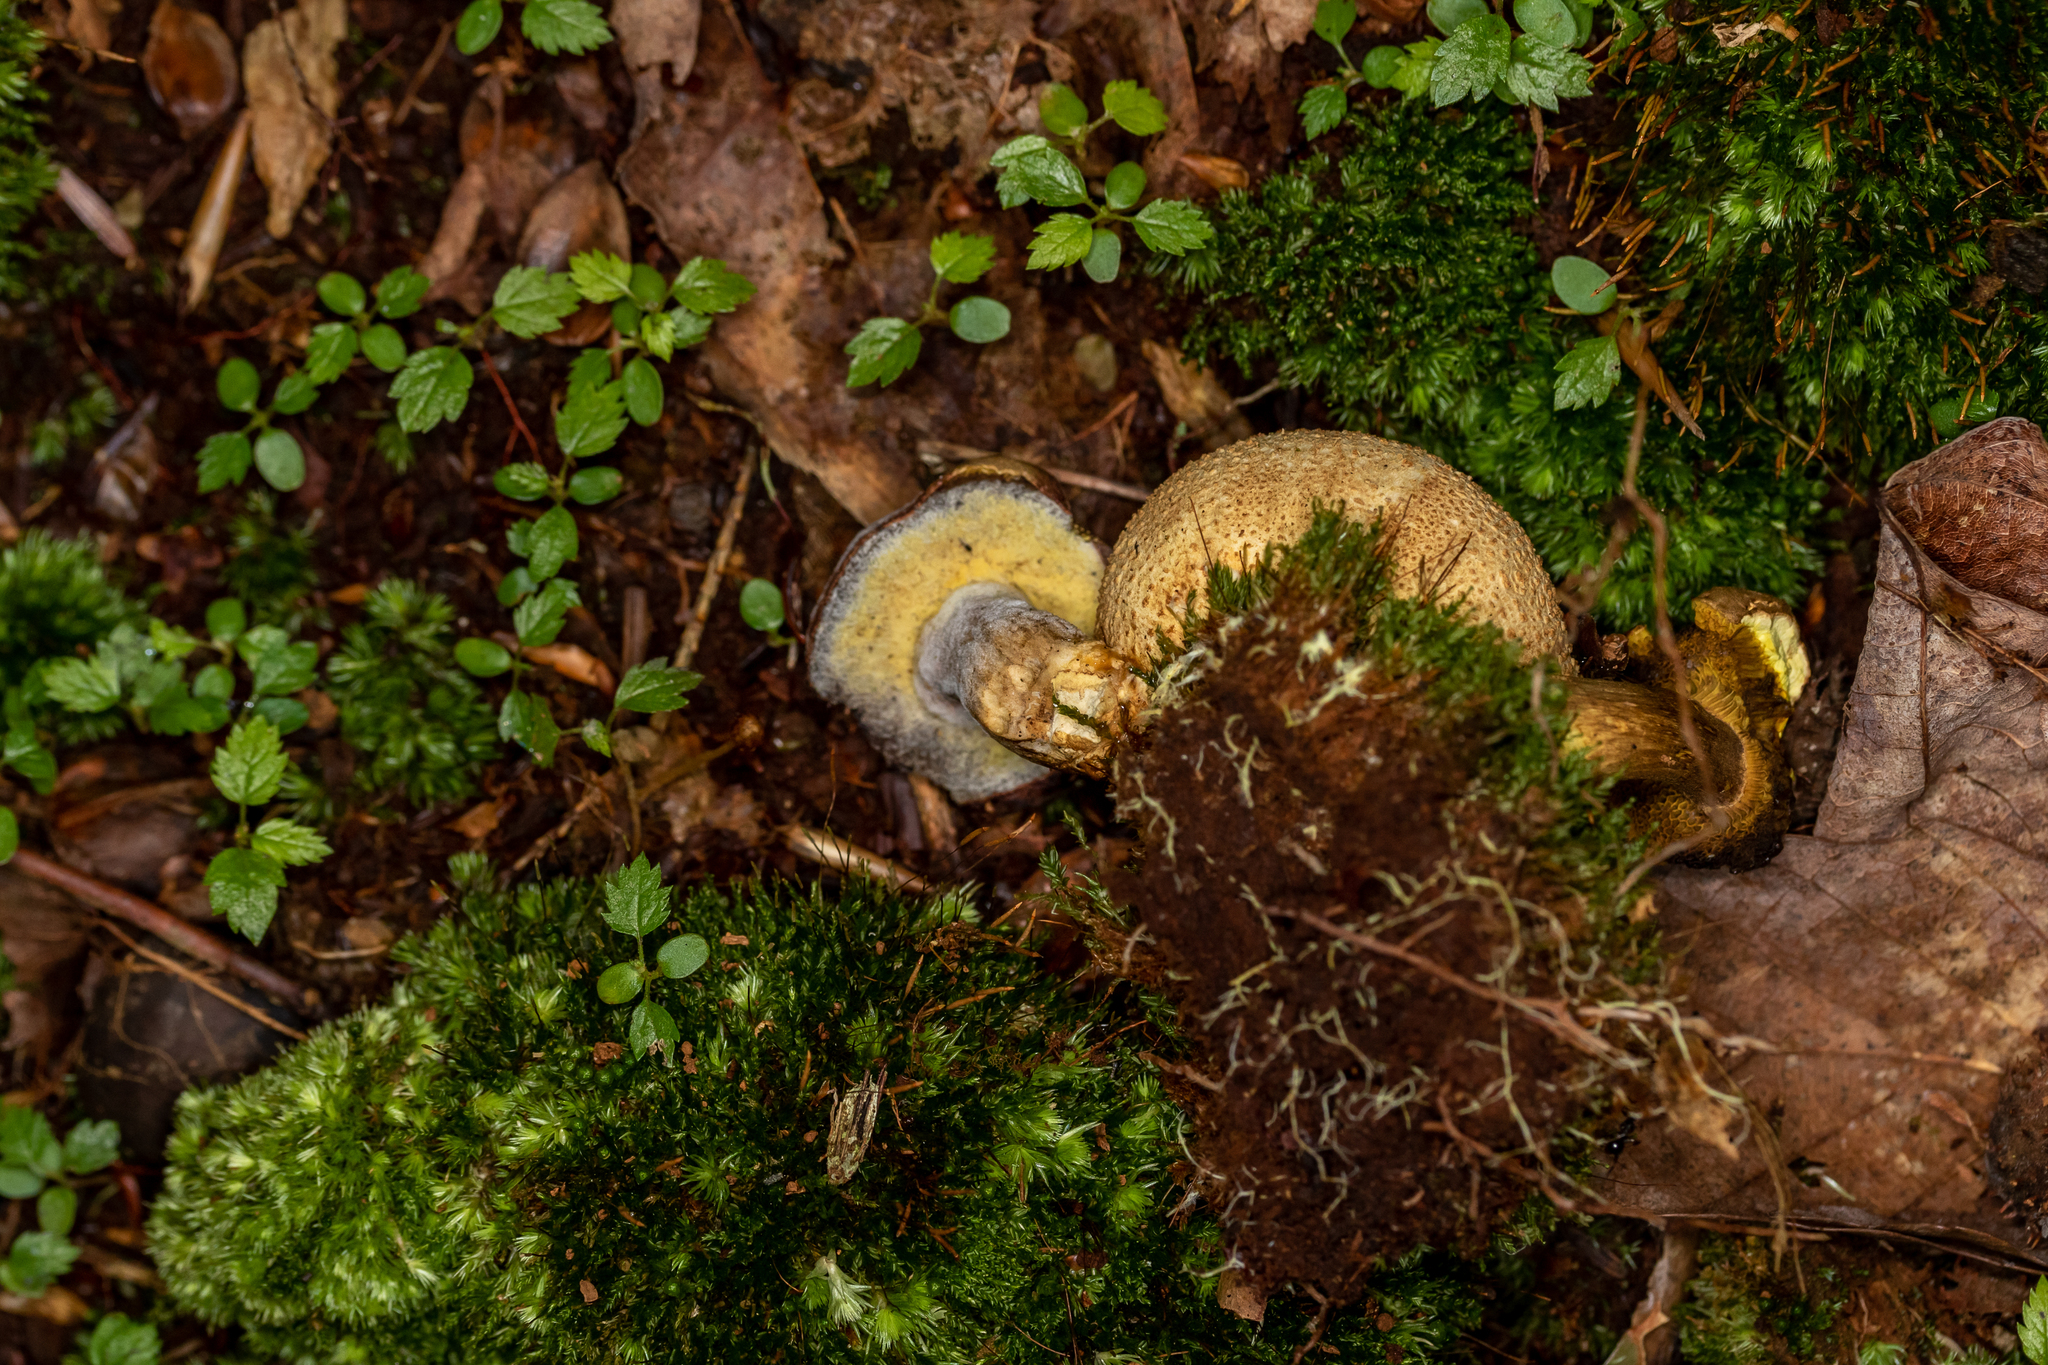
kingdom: Fungi
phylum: Basidiomycota
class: Agaricomycetes
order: Boletales
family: Boletaceae
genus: Pseudoboletus
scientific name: Pseudoboletus parasiticus
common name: Parasitic bolete
